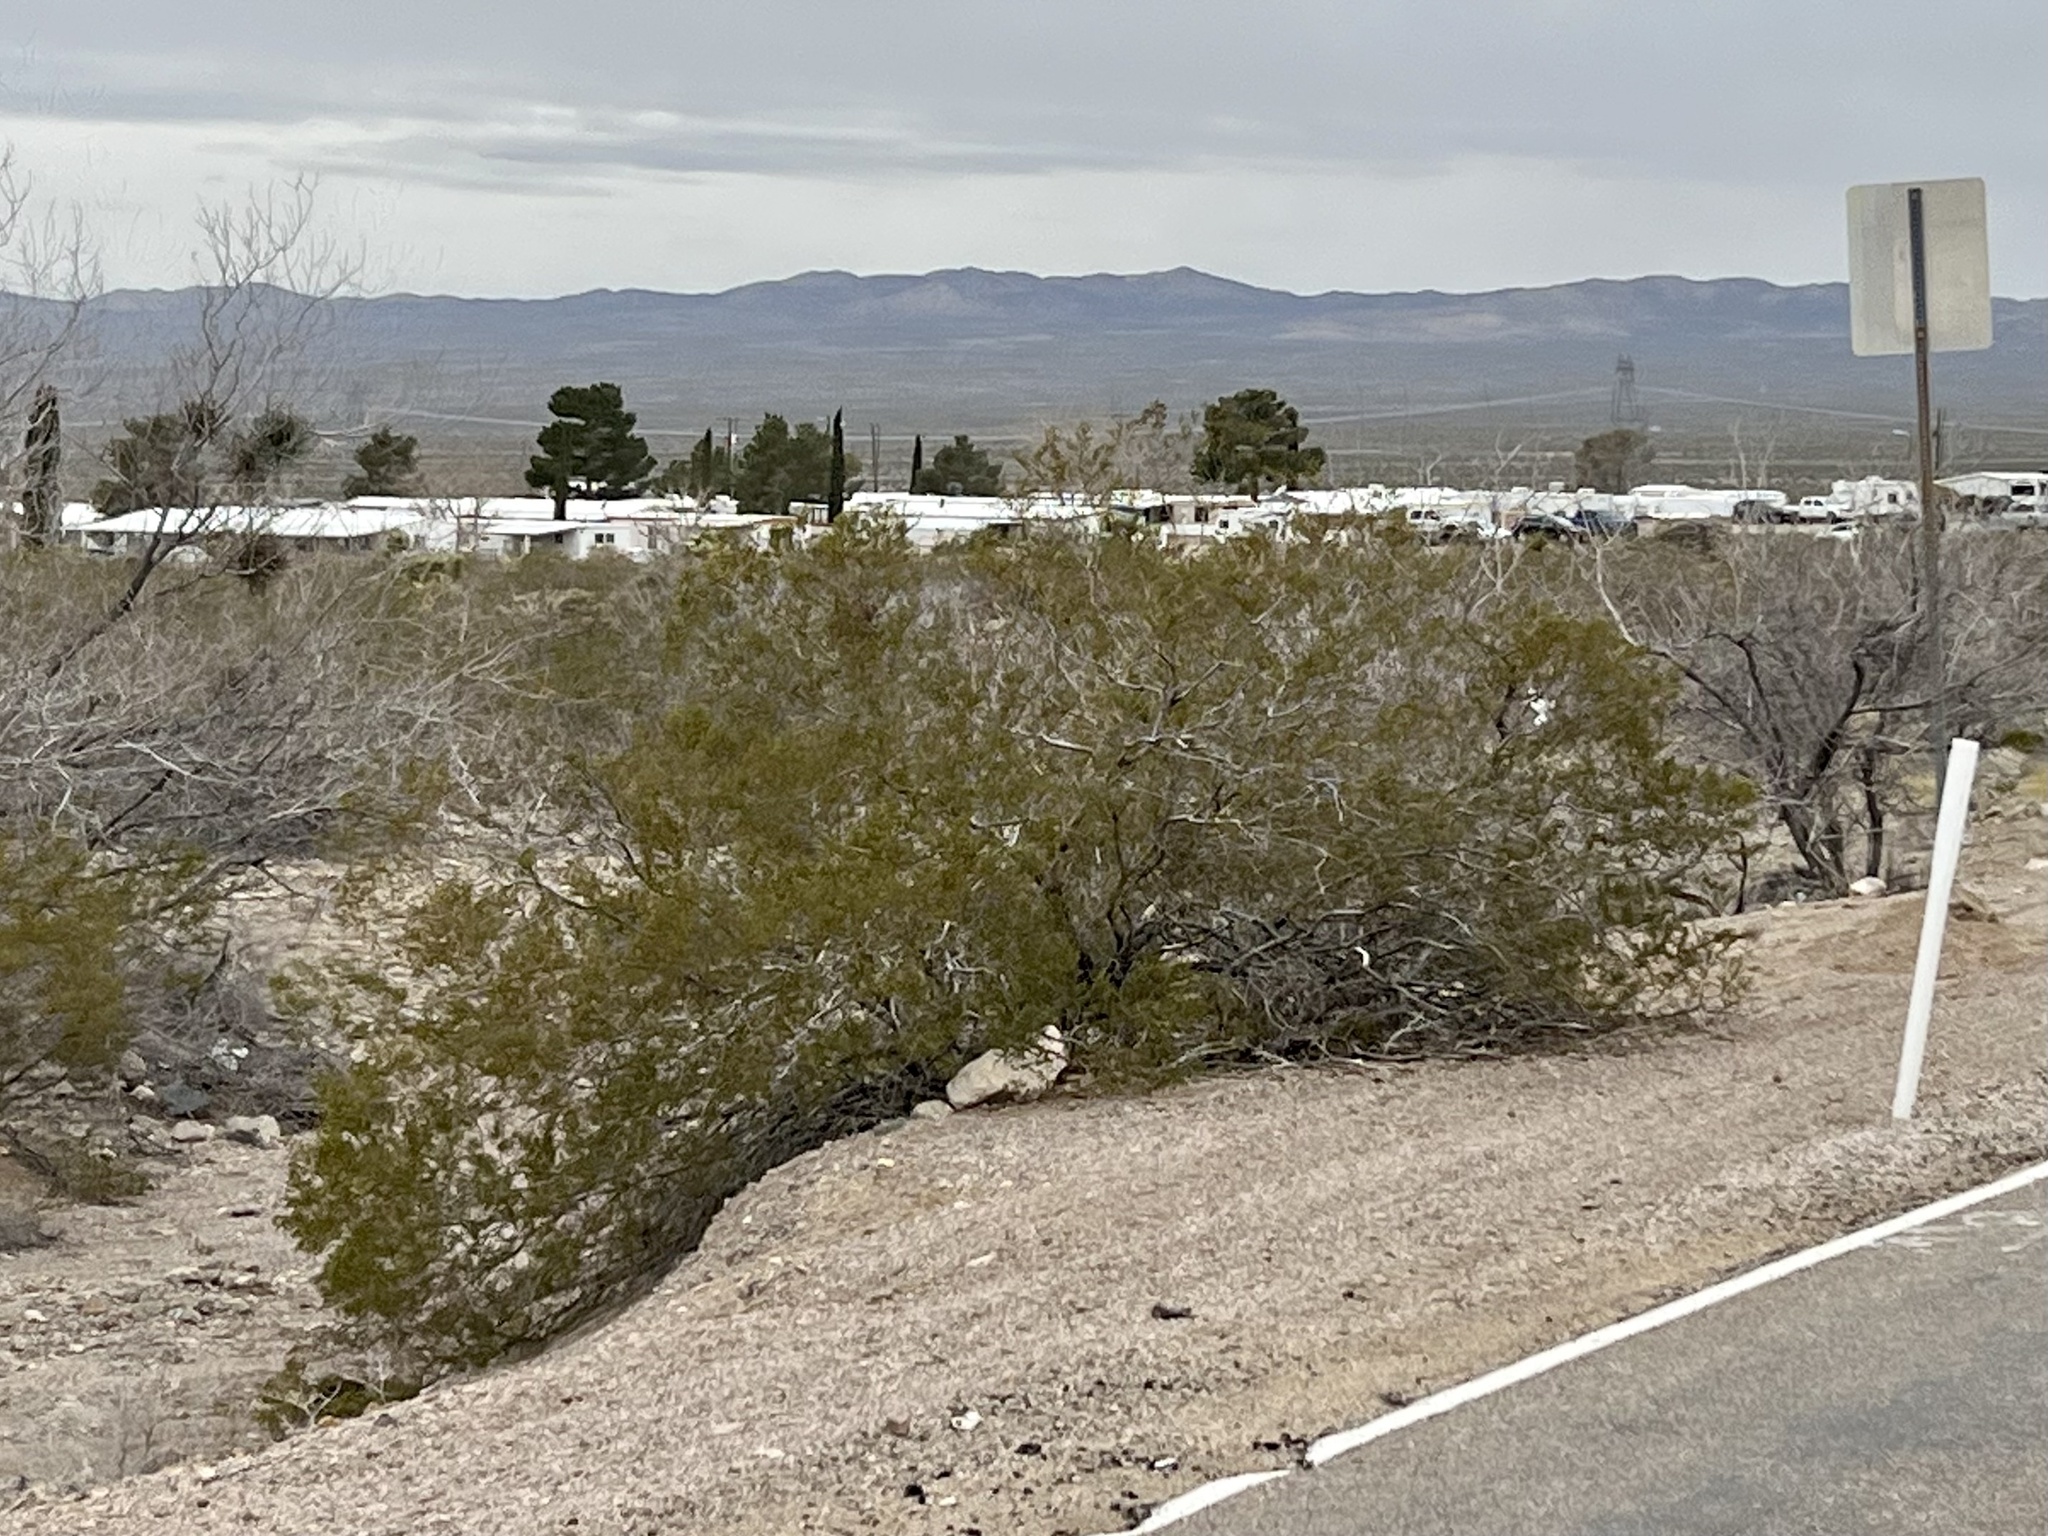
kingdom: Plantae
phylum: Tracheophyta
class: Magnoliopsida
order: Zygophyllales
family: Zygophyllaceae
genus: Larrea
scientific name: Larrea tridentata
